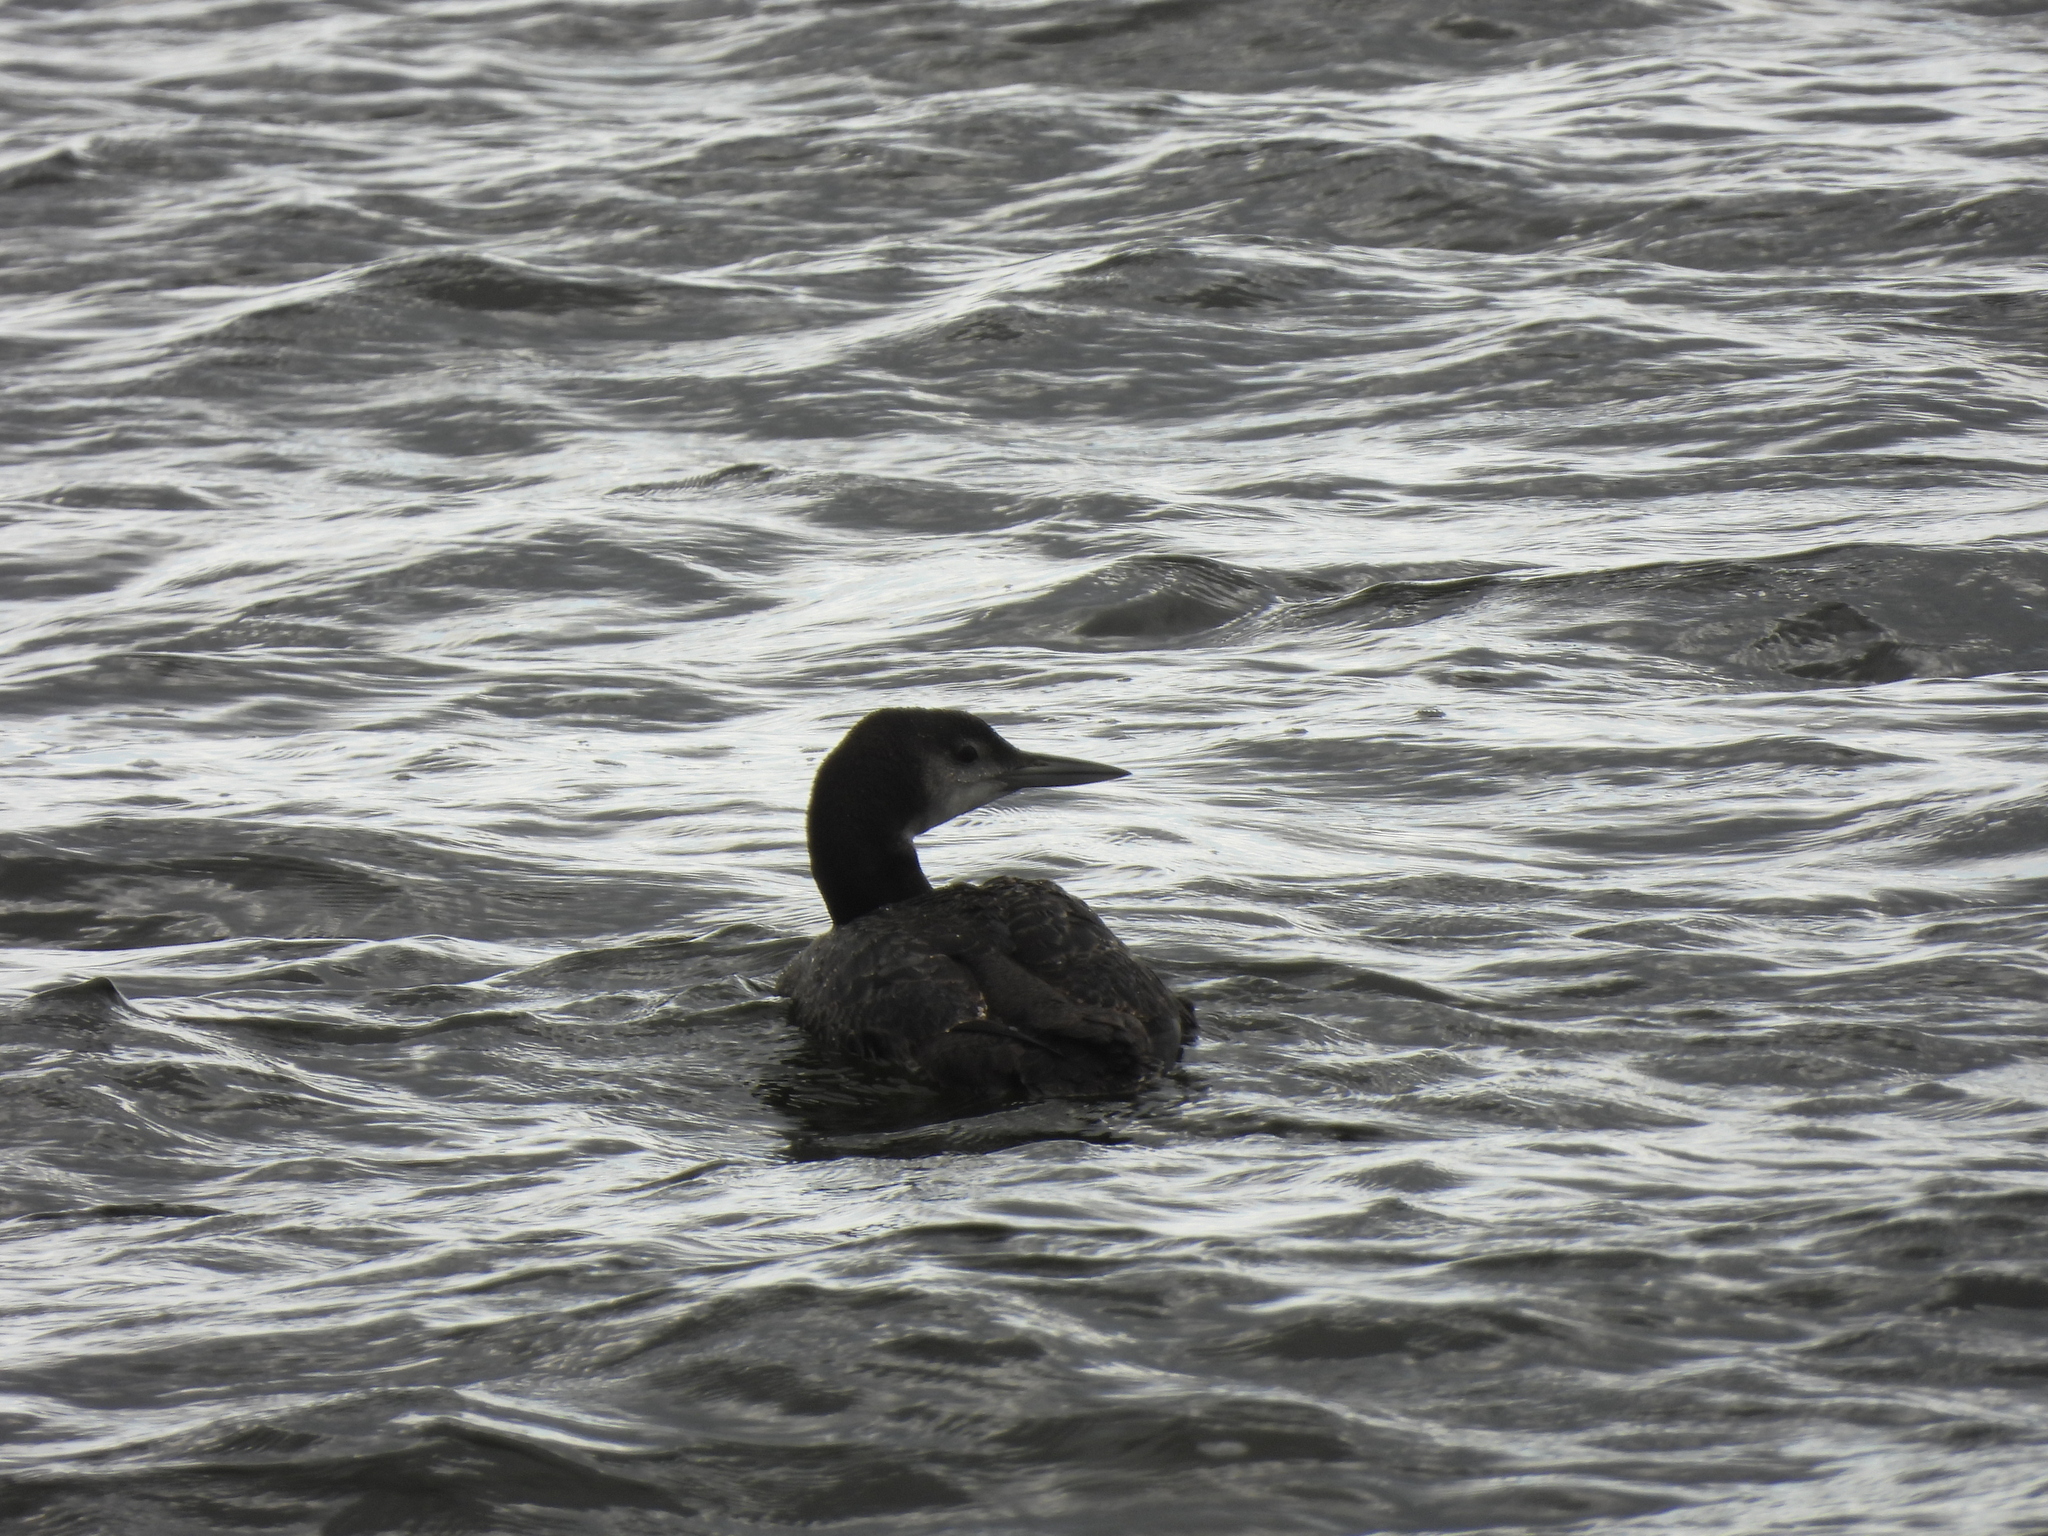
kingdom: Animalia
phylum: Chordata
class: Aves
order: Gaviiformes
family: Gaviidae
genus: Gavia
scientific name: Gavia immer
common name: Common loon
